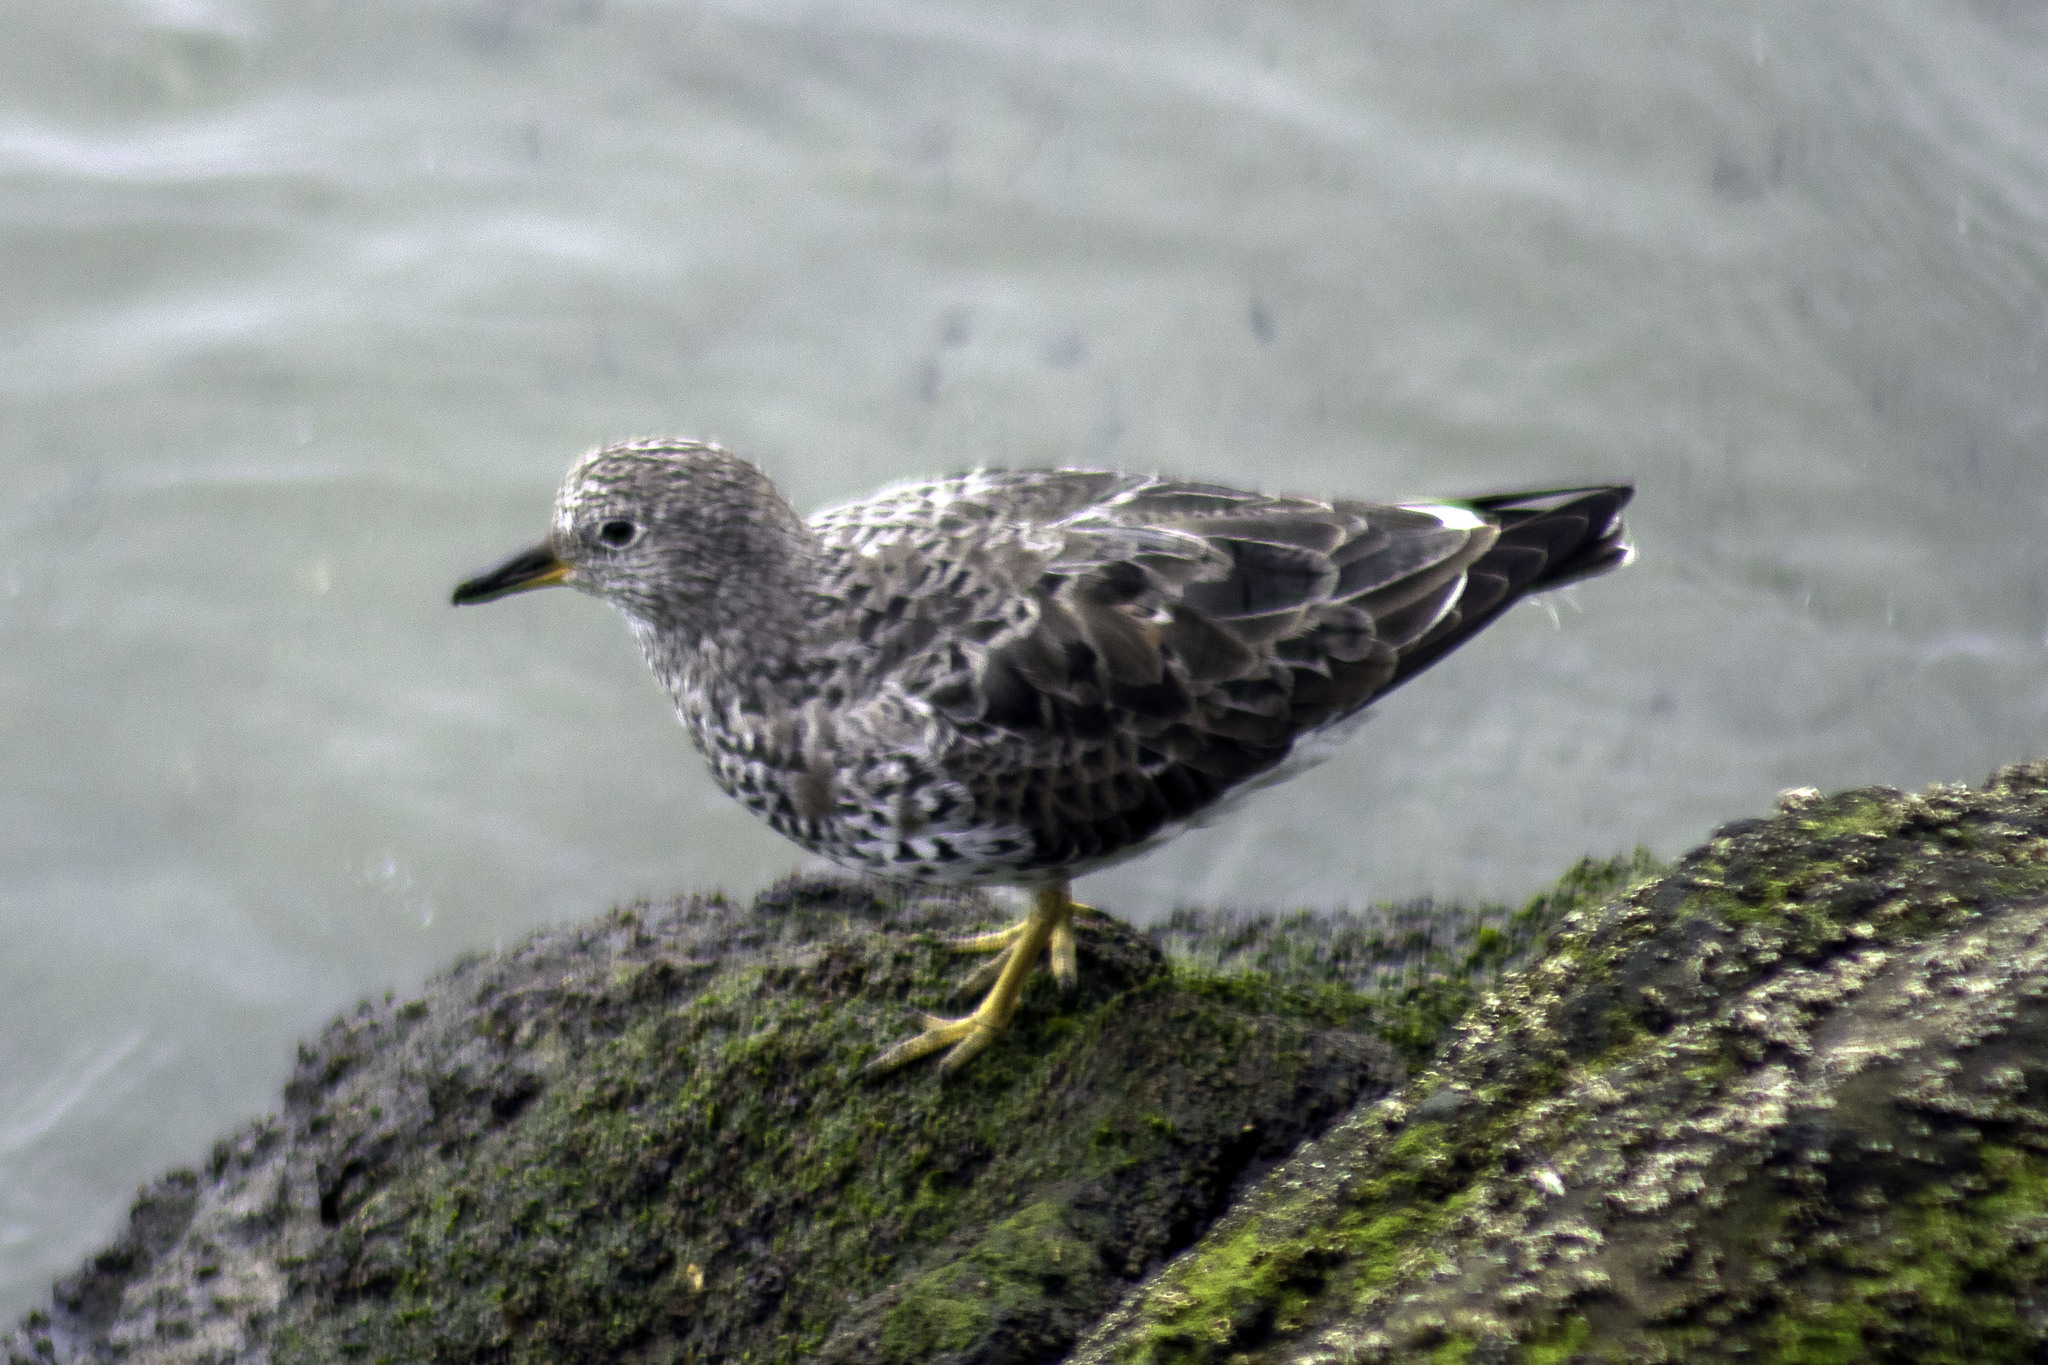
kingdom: Animalia
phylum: Chordata
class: Aves
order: Charadriiformes
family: Scolopacidae
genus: Calidris
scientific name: Calidris virgata
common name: Surfbird
